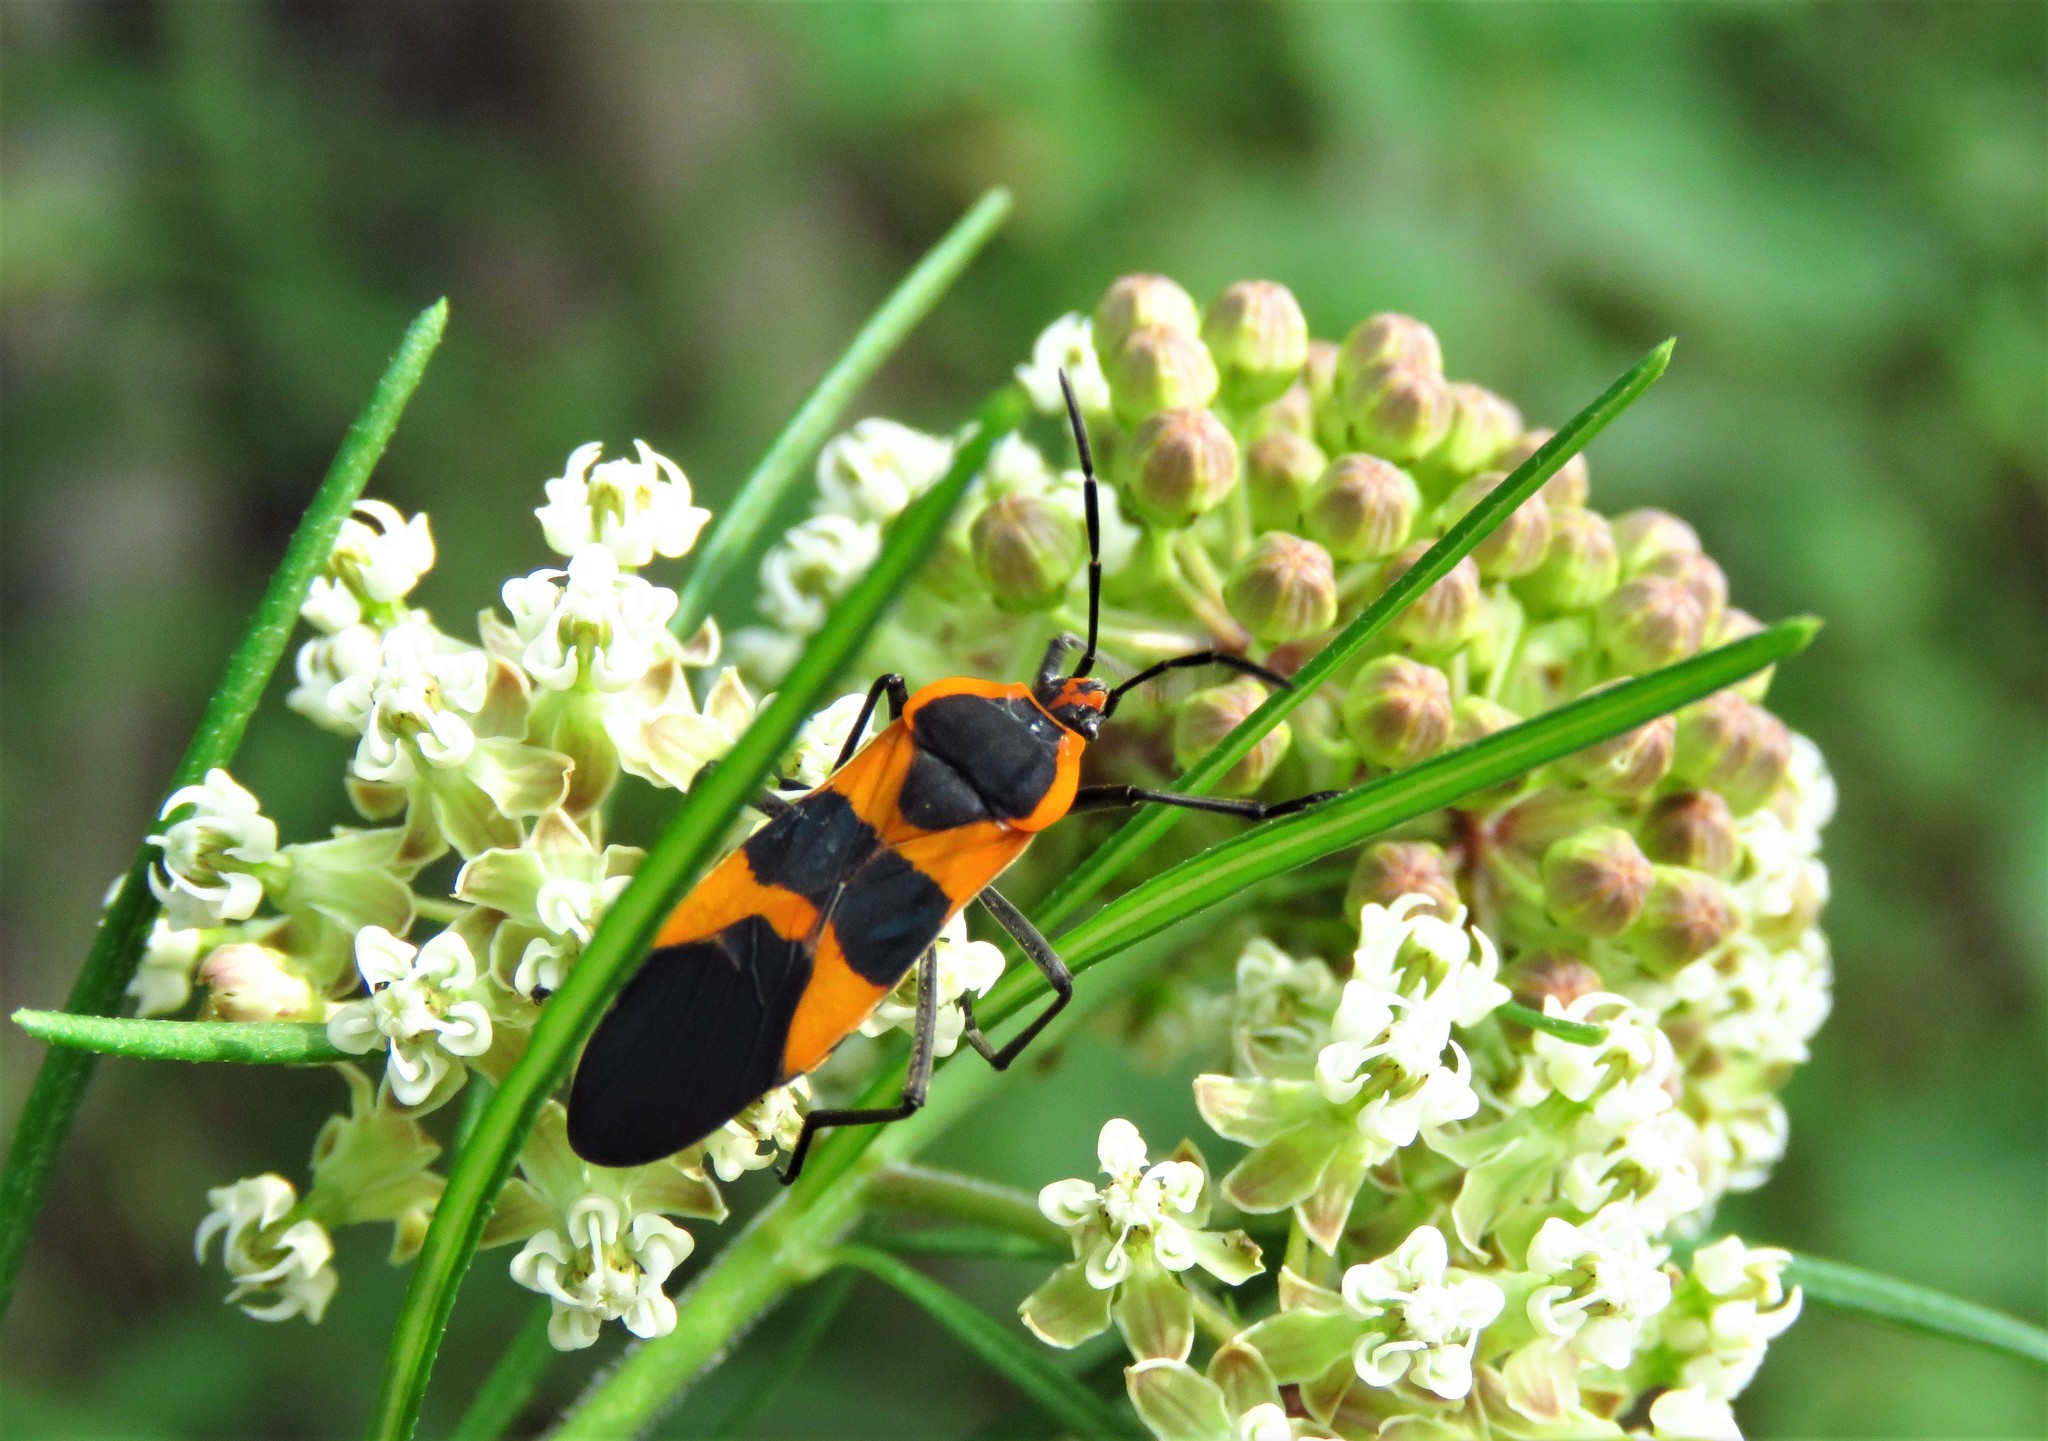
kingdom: Animalia
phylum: Arthropoda
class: Insecta
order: Hemiptera
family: Lygaeidae
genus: Oncopeltus
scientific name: Oncopeltus fasciatus
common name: Large milkweed bug
